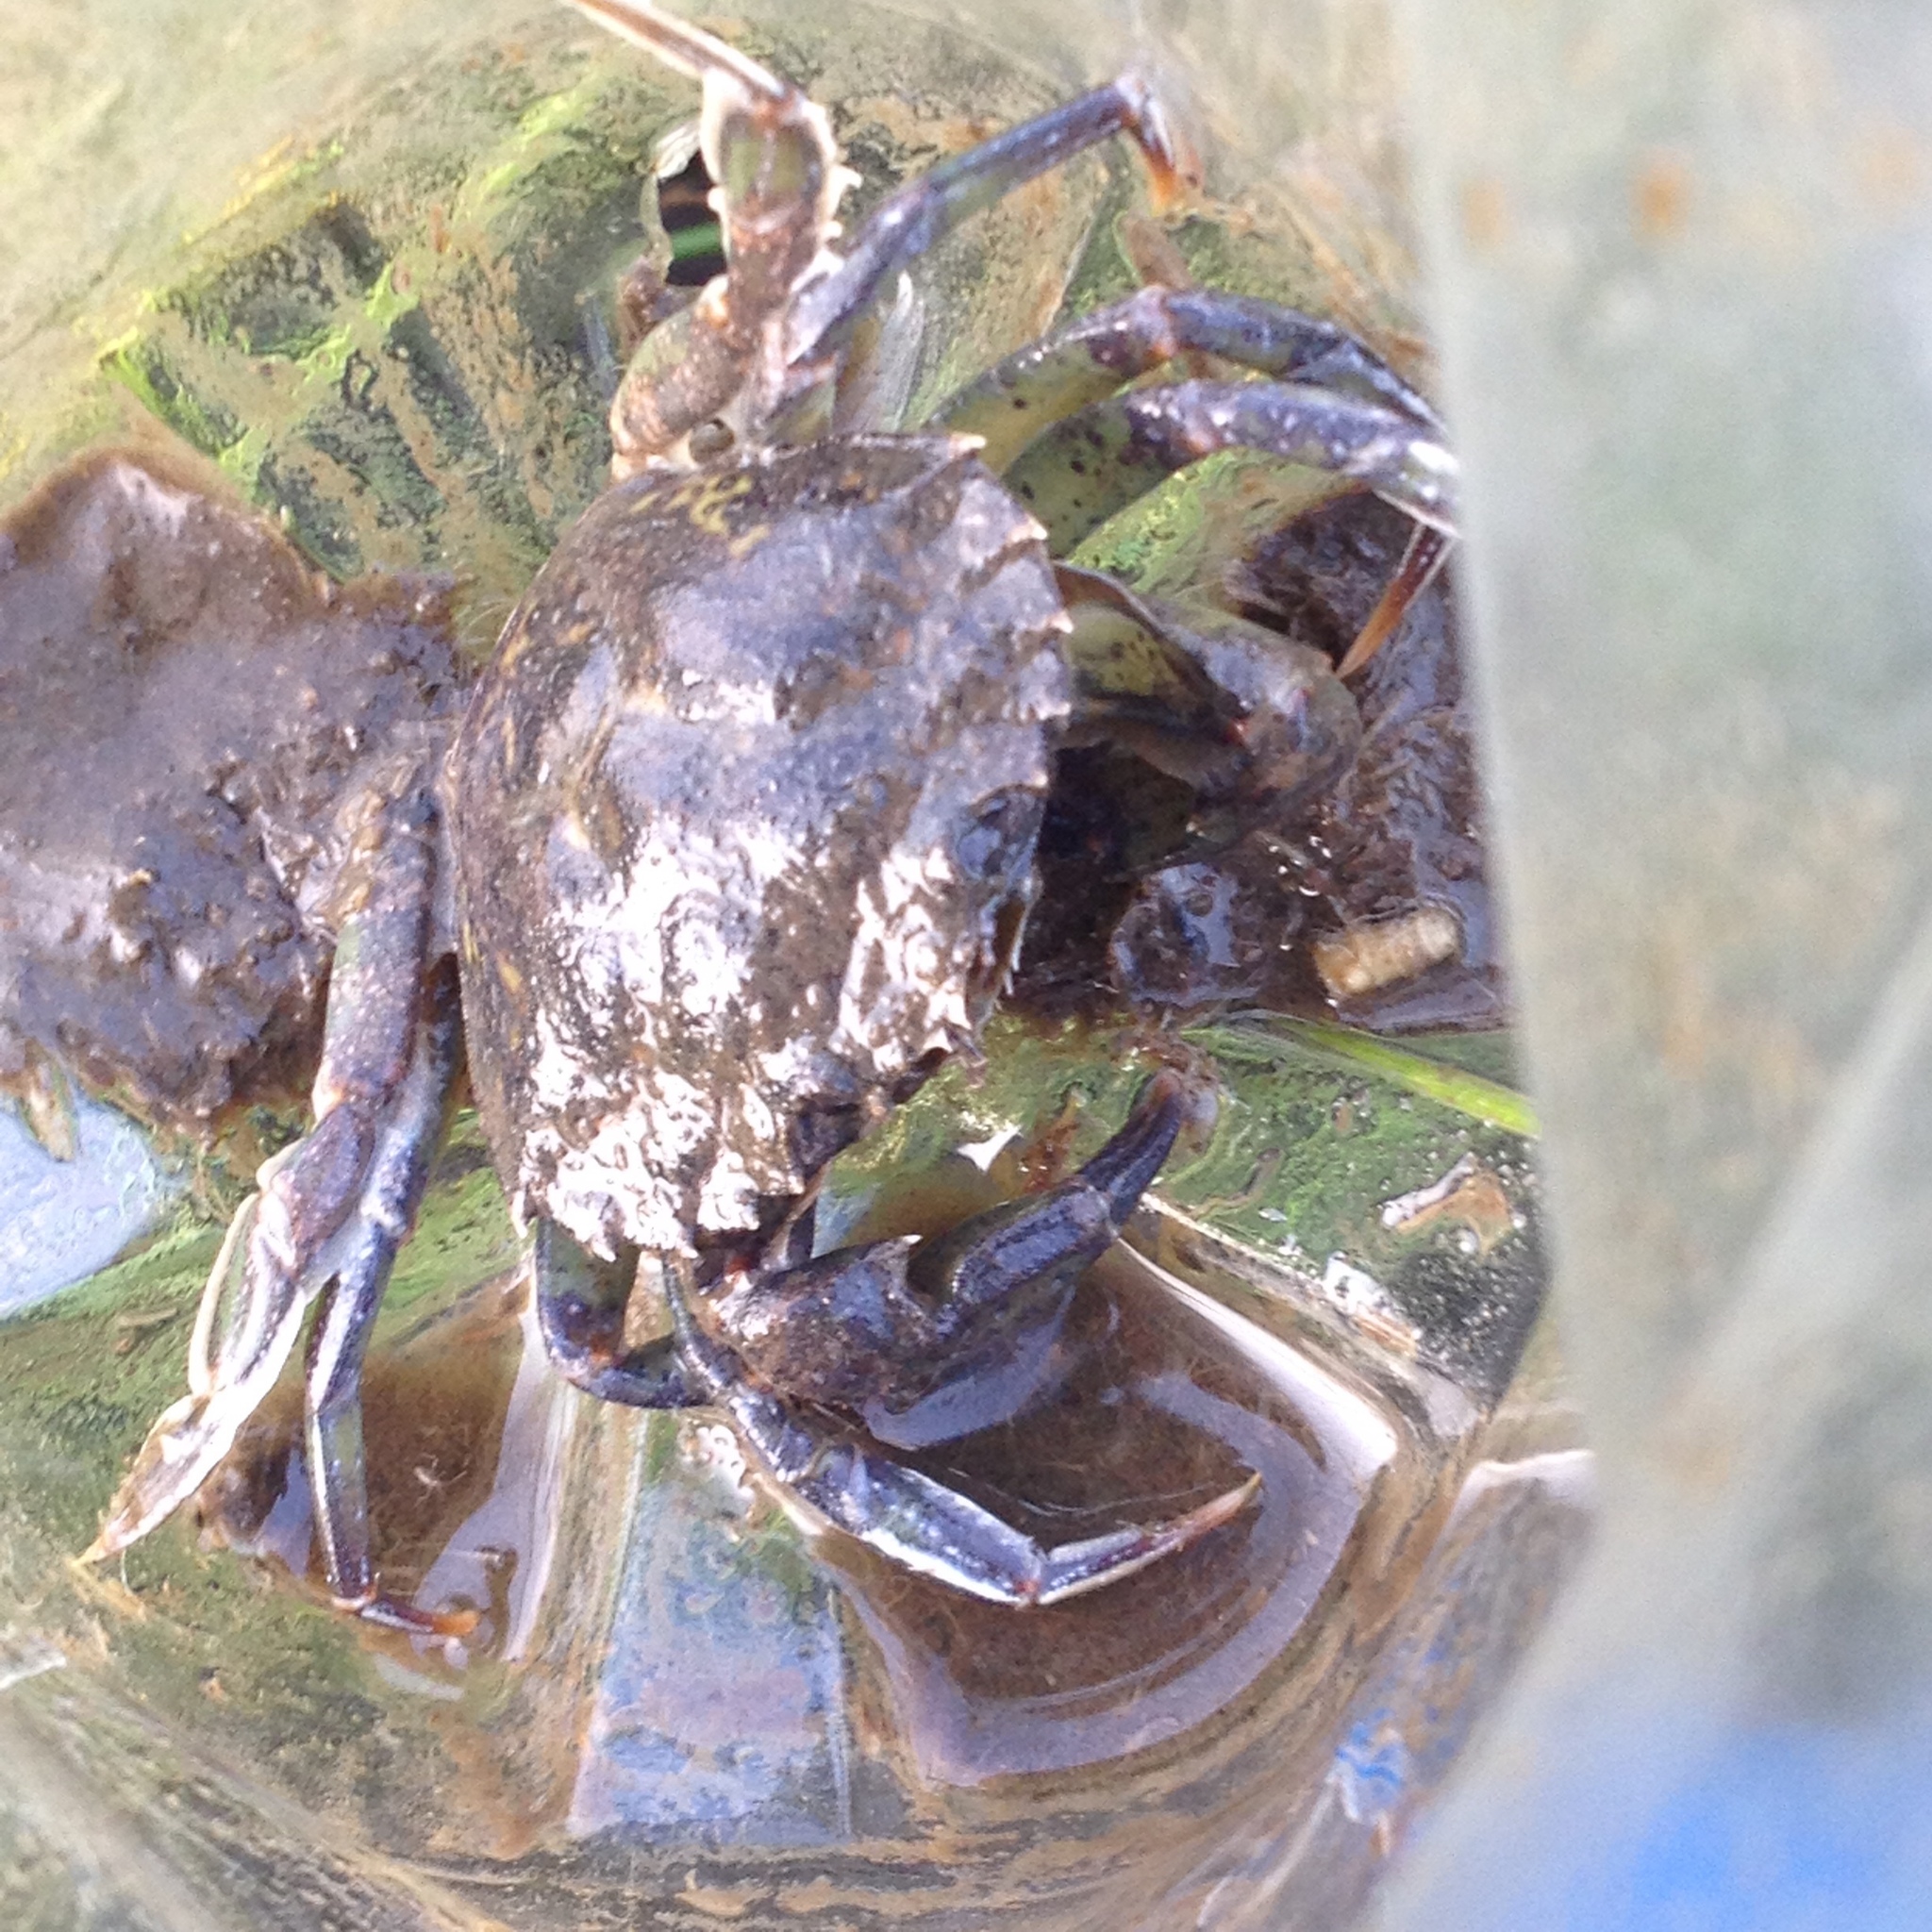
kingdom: Animalia
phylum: Arthropoda
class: Malacostraca
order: Decapoda
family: Carcinidae
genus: Carcinus
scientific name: Carcinus maenas
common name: European green crab
